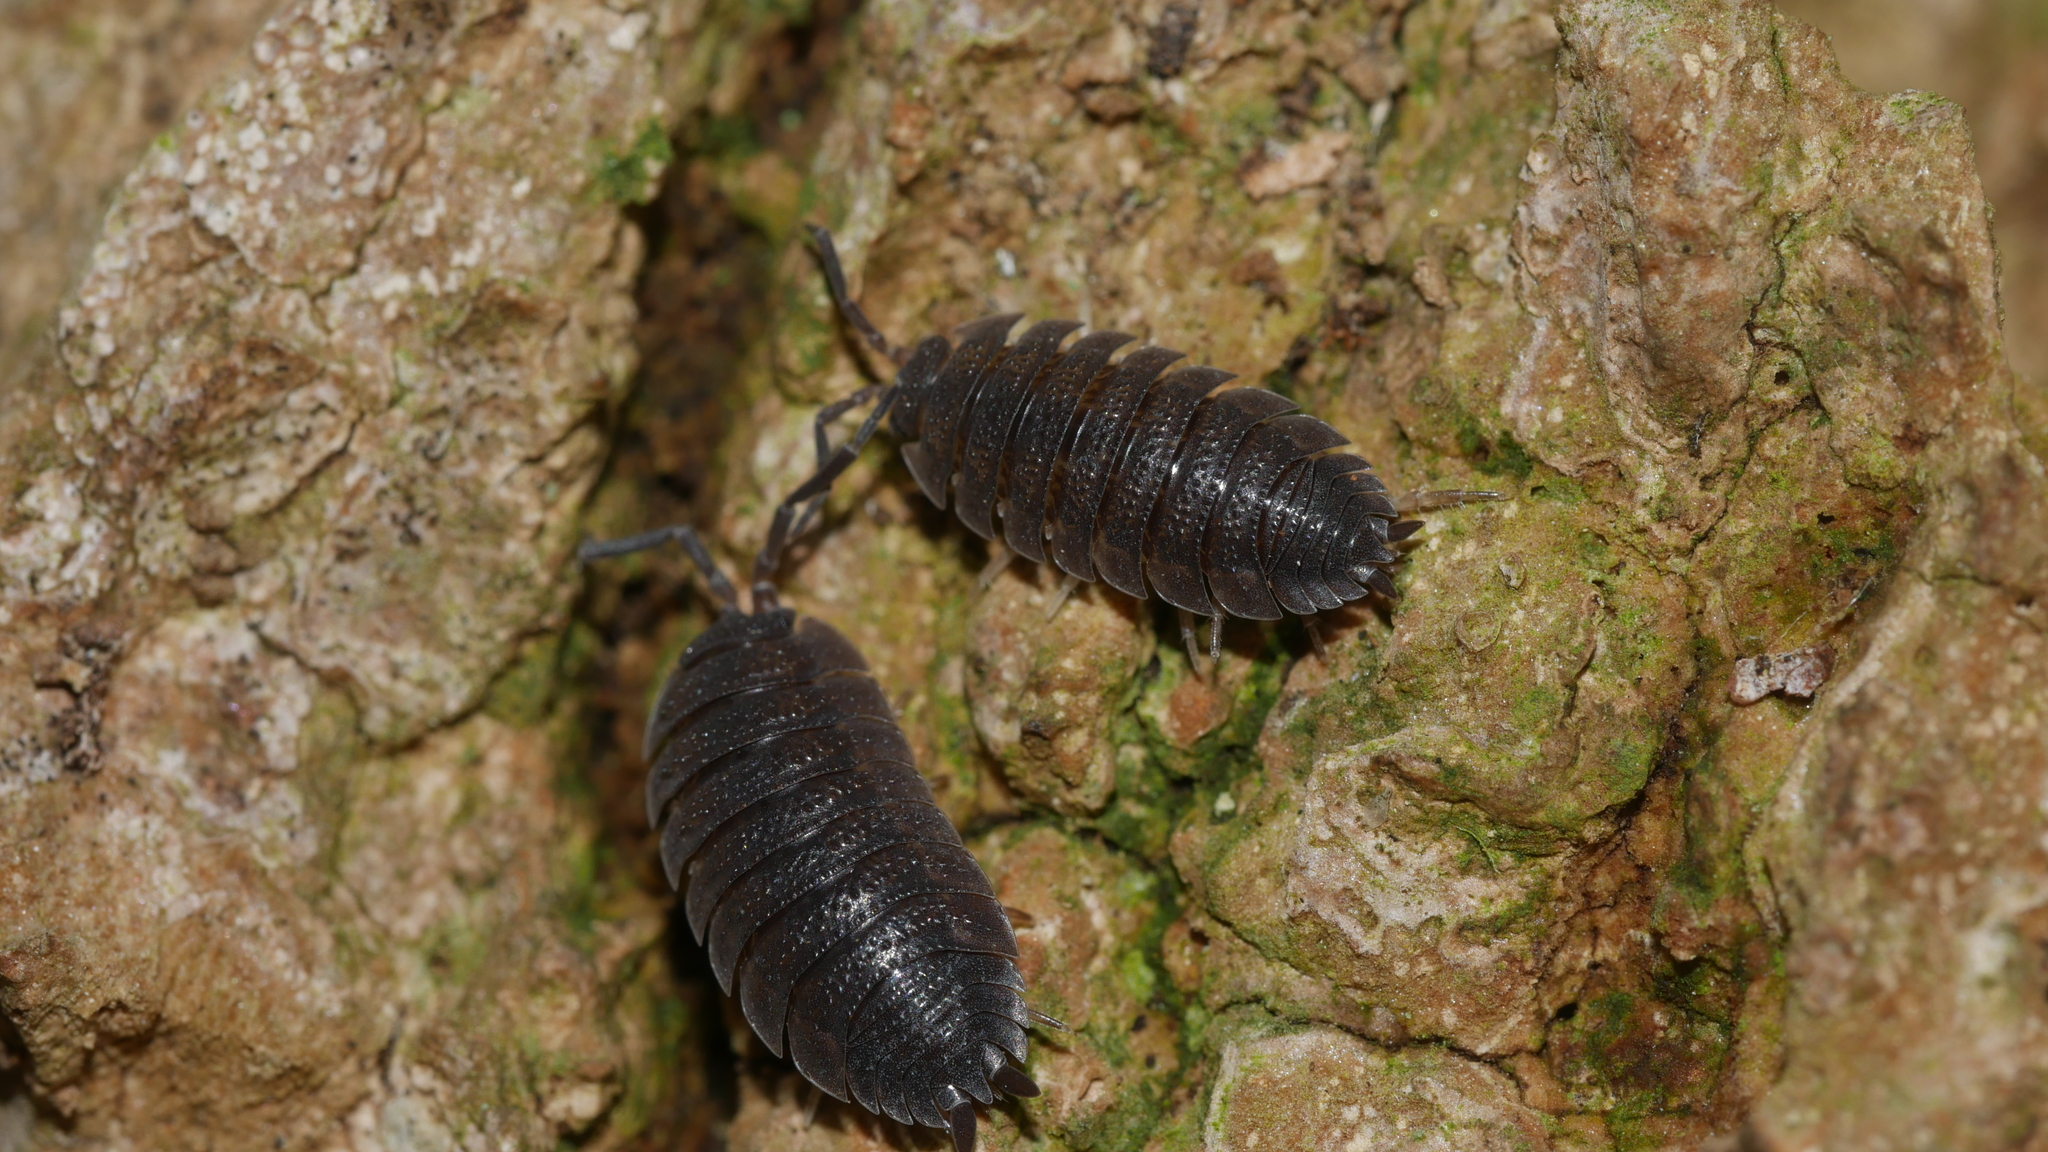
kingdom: Animalia
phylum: Arthropoda
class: Malacostraca
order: Isopoda
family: Porcellionidae
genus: Porcellio
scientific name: Porcellio scaber
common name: Common rough woodlouse
